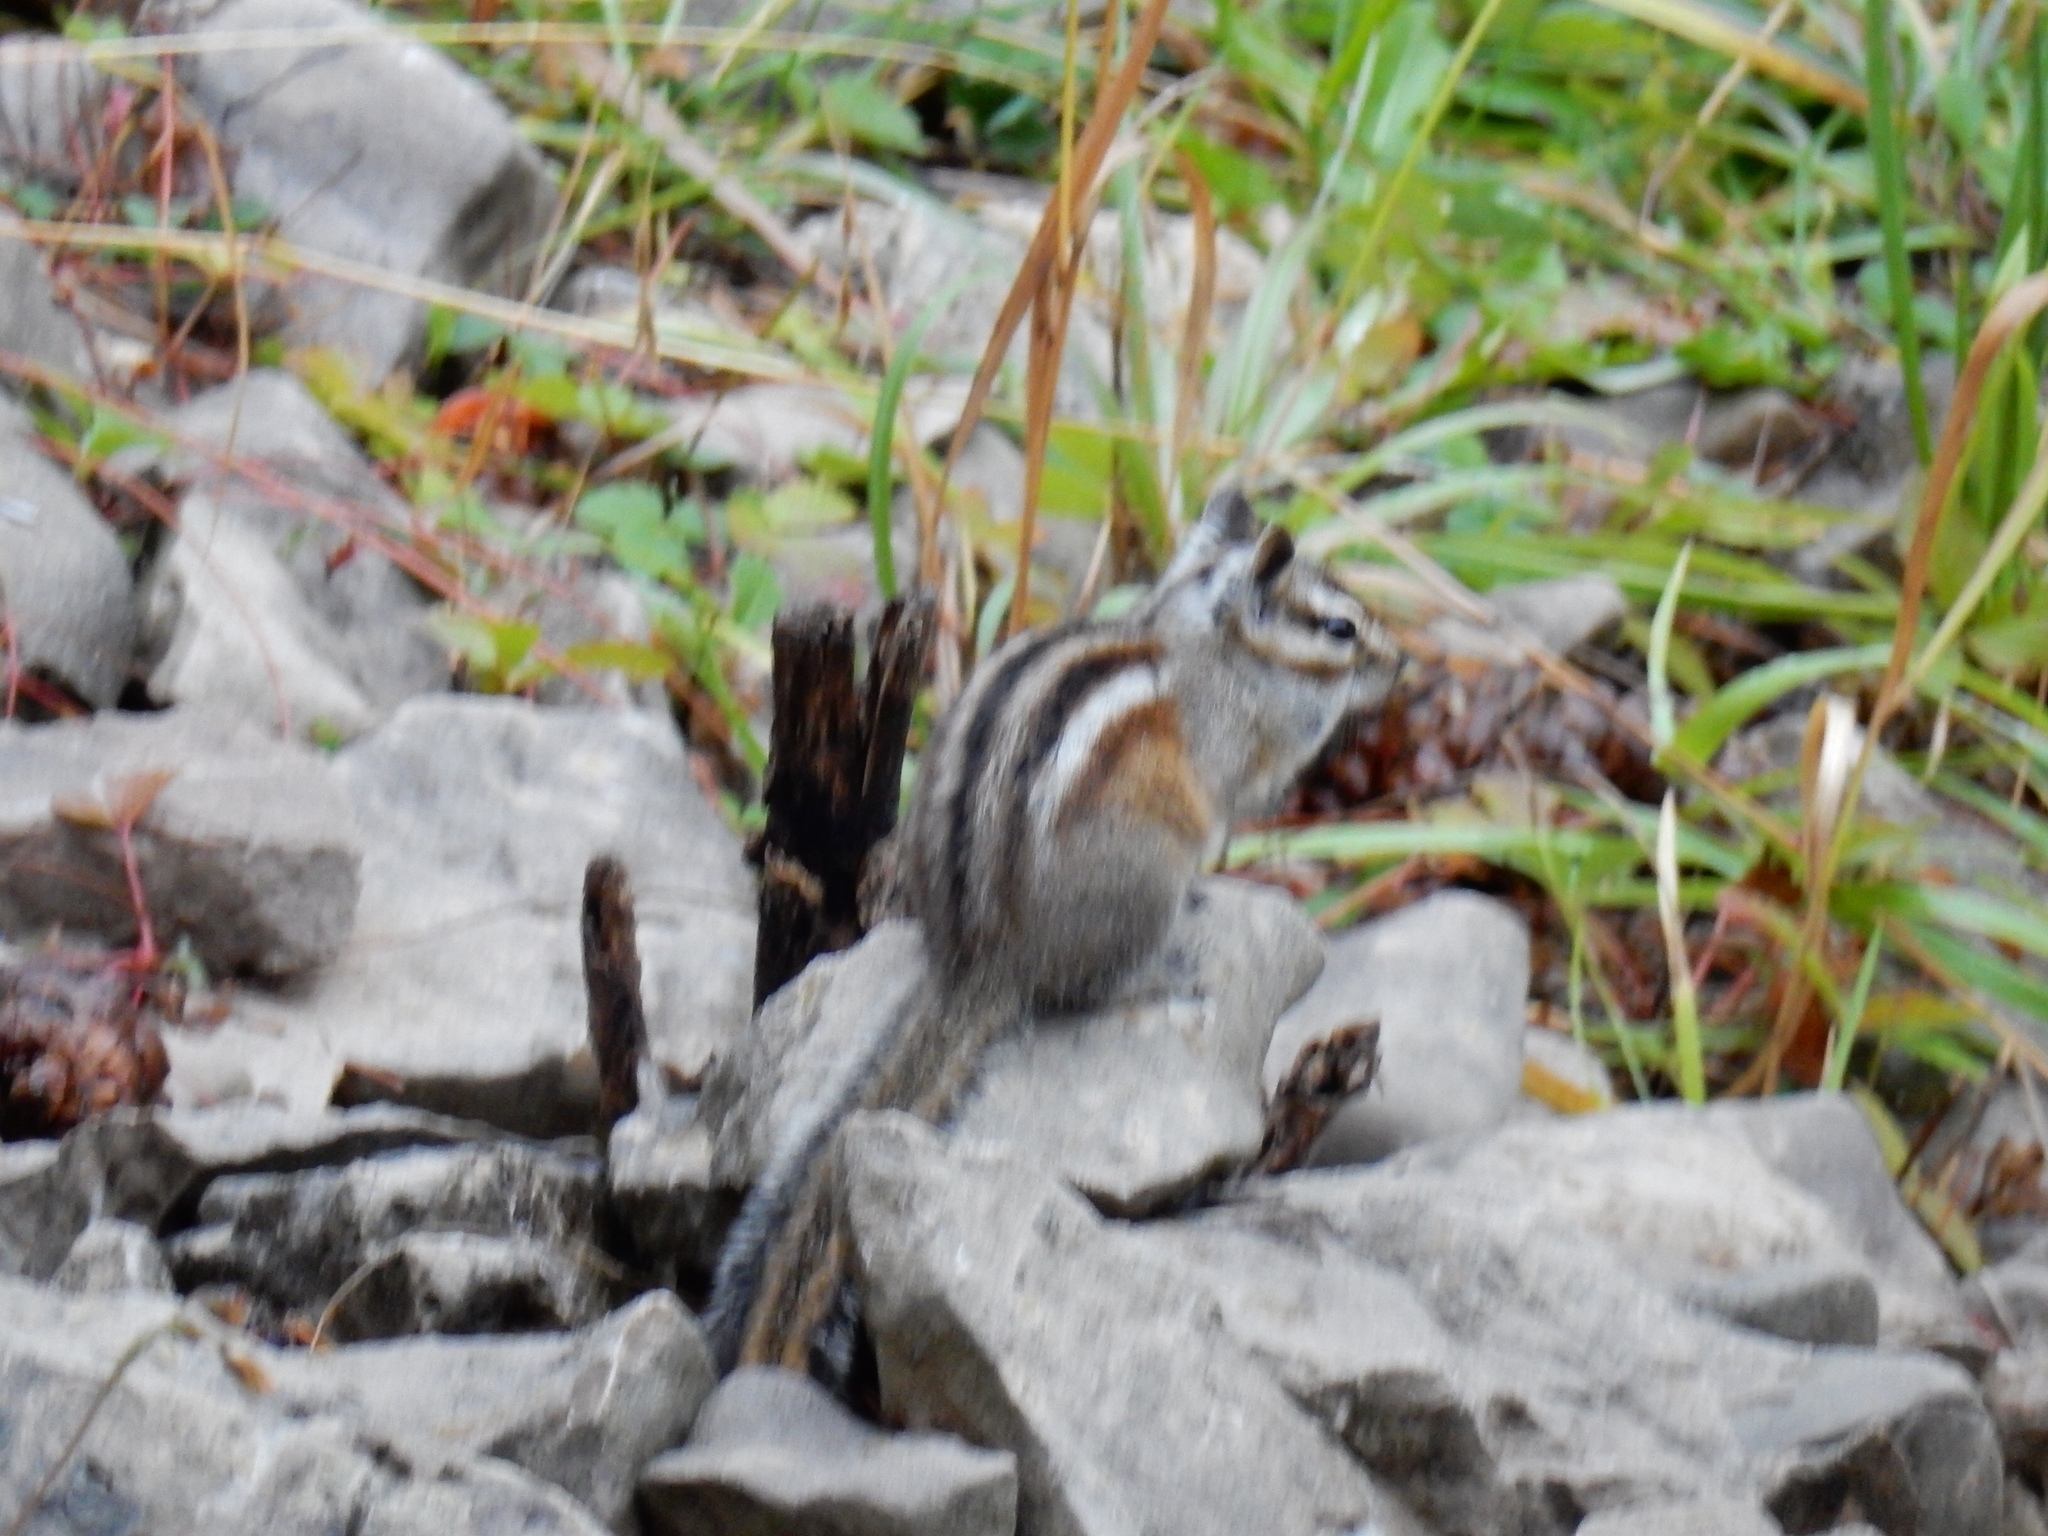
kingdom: Animalia
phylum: Chordata
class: Mammalia
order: Rodentia
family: Sciuridae
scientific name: Sciuridae
